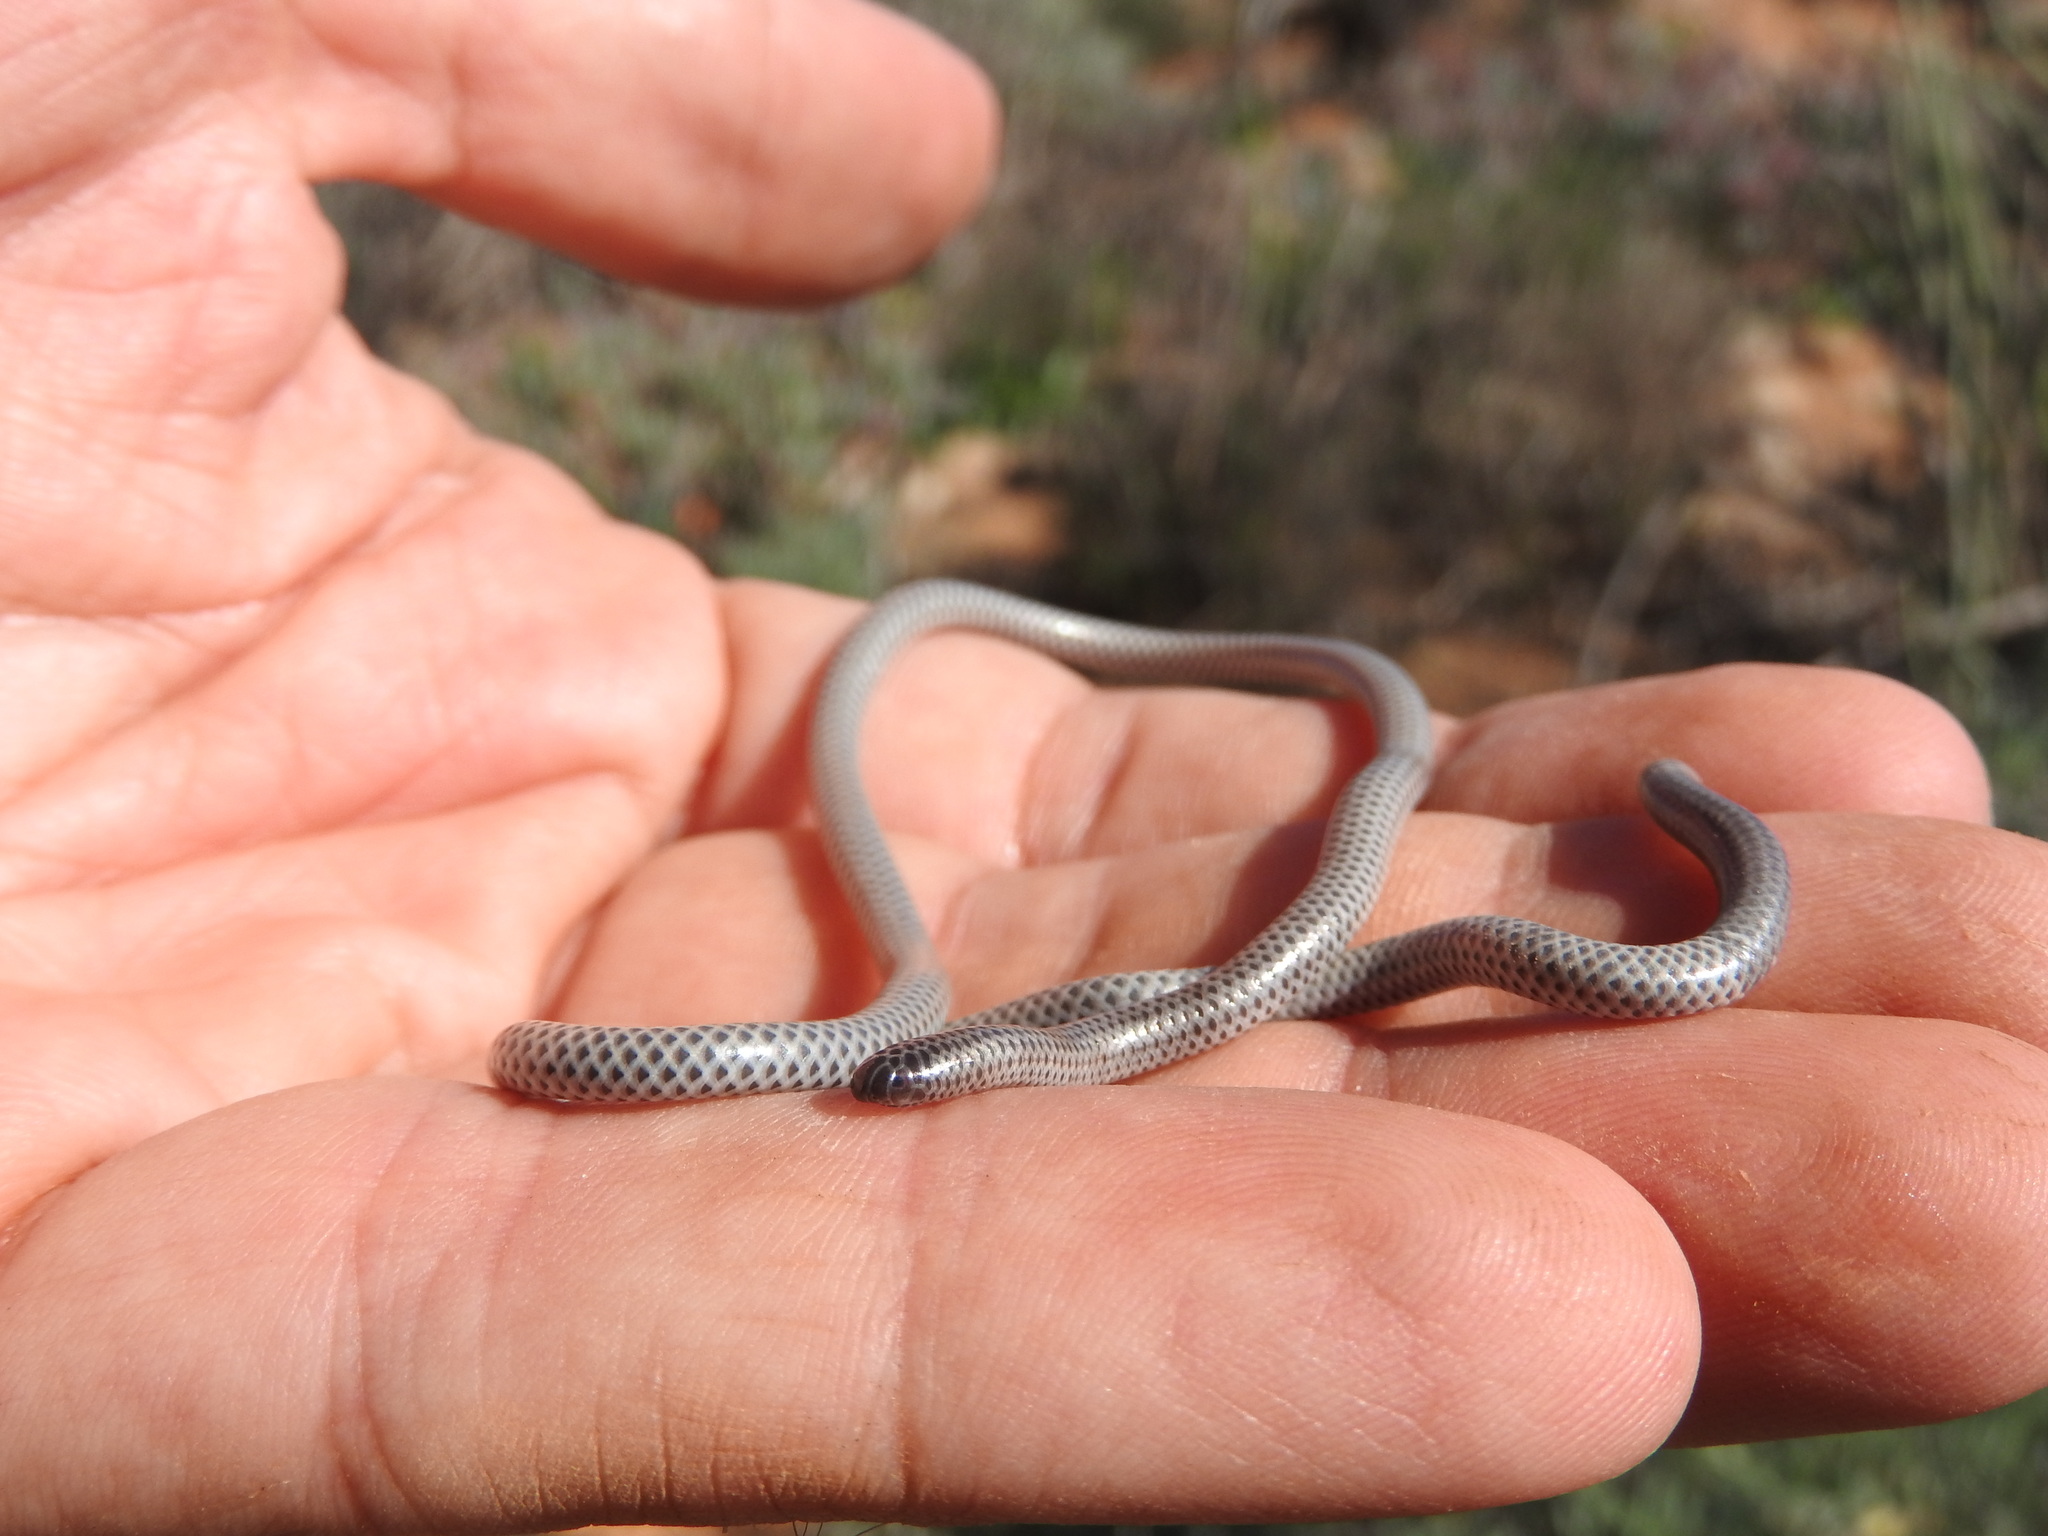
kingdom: Animalia
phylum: Chordata
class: Squamata
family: Leptotyphlopidae
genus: Namibiana
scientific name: Namibiana gracilior
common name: Slender thread snake
